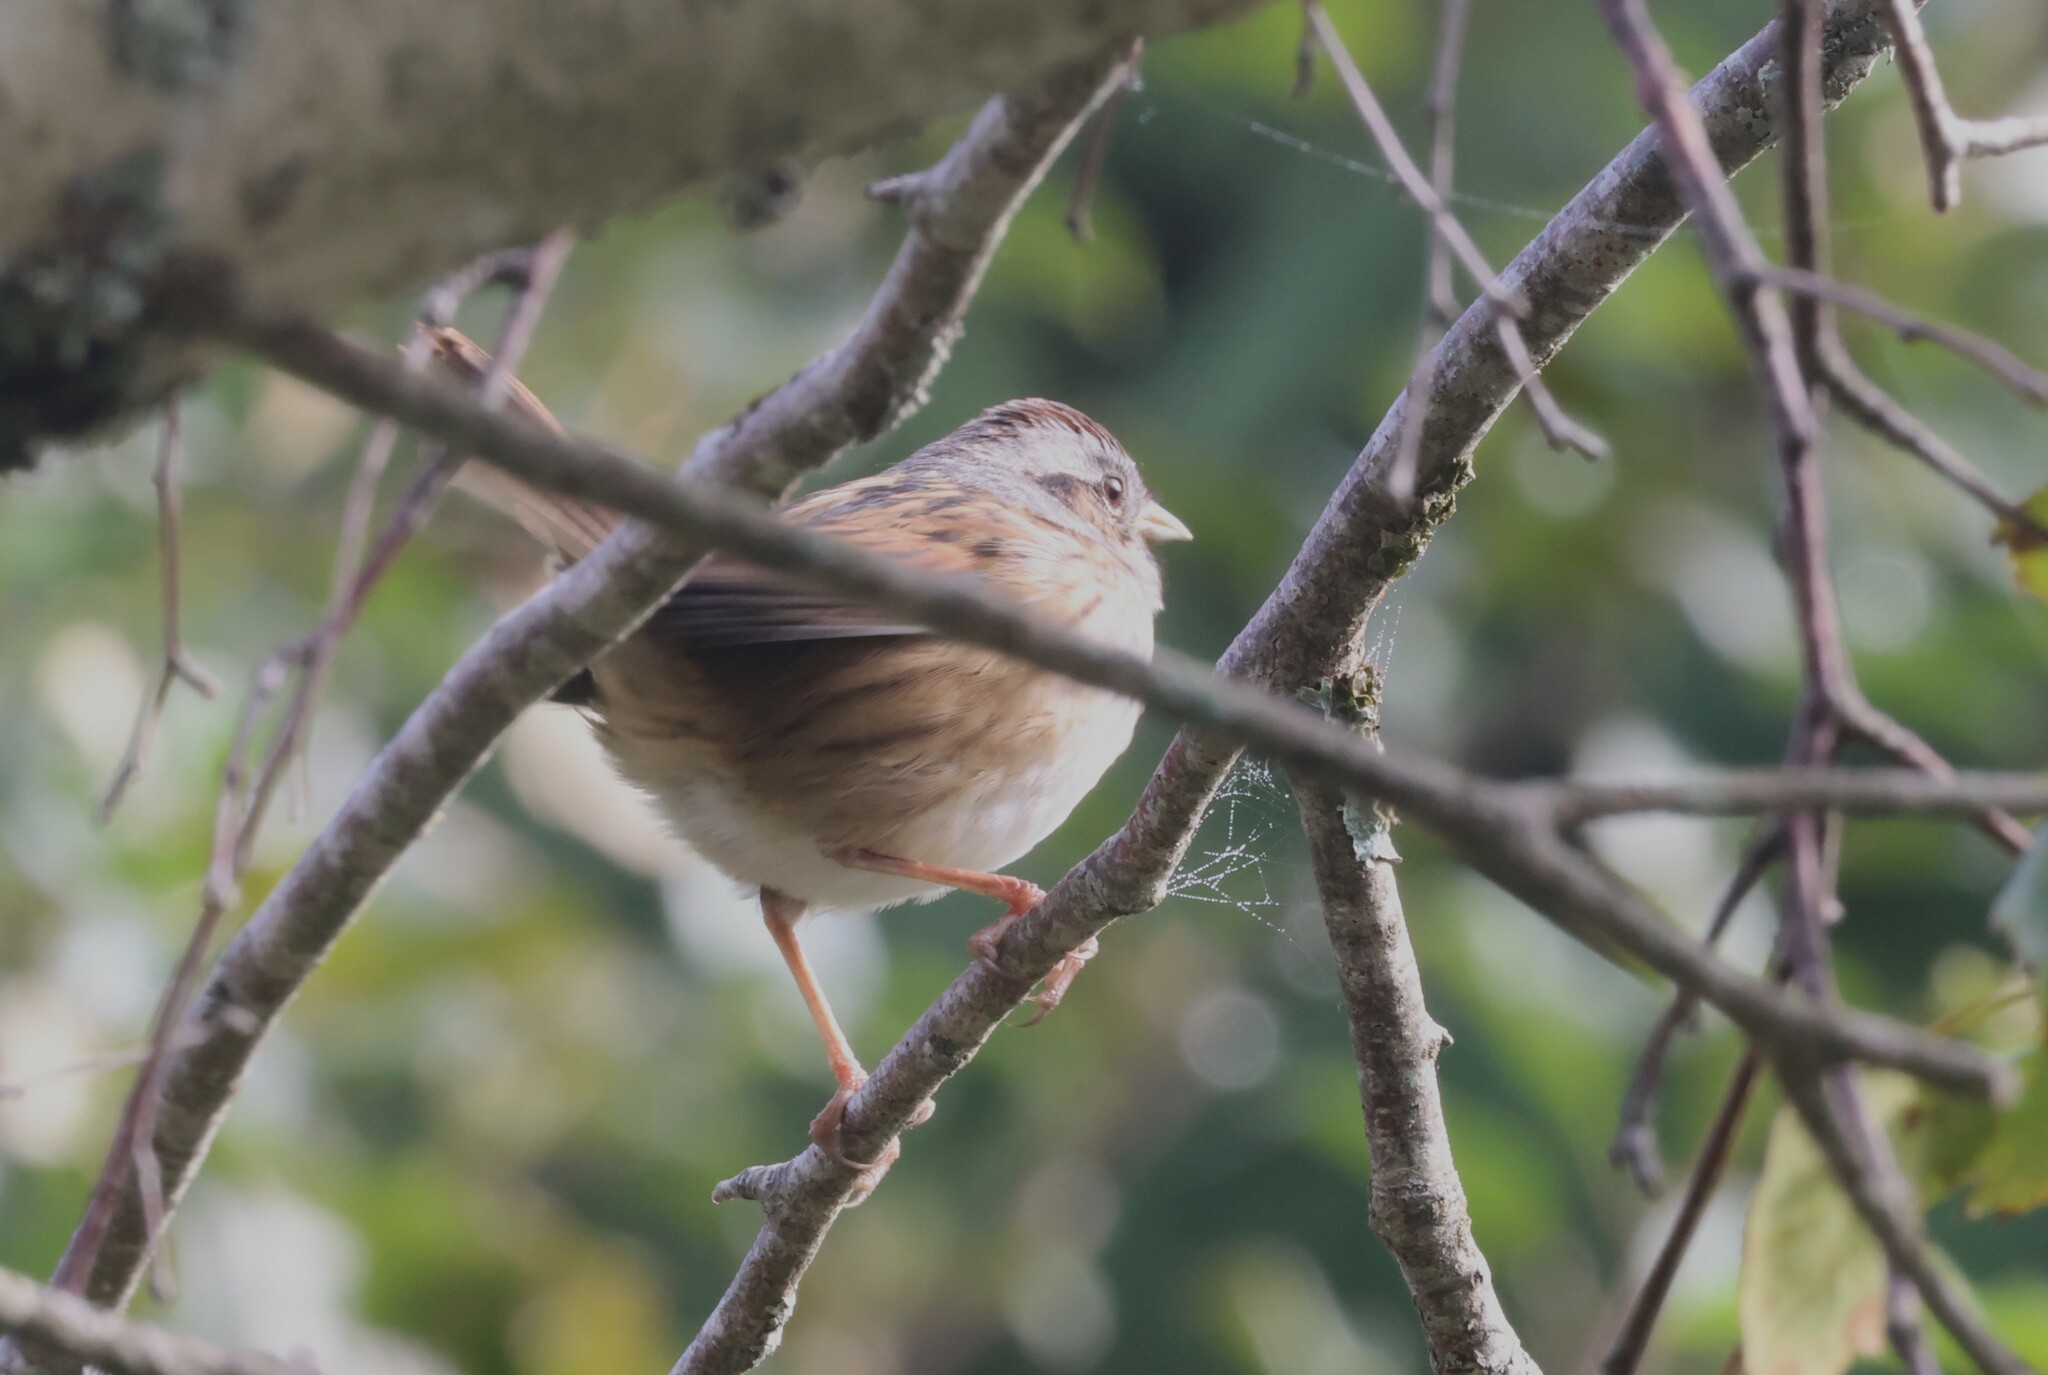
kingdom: Animalia
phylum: Chordata
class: Aves
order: Passeriformes
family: Passerellidae
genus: Melospiza
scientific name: Melospiza georgiana
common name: Swamp sparrow
